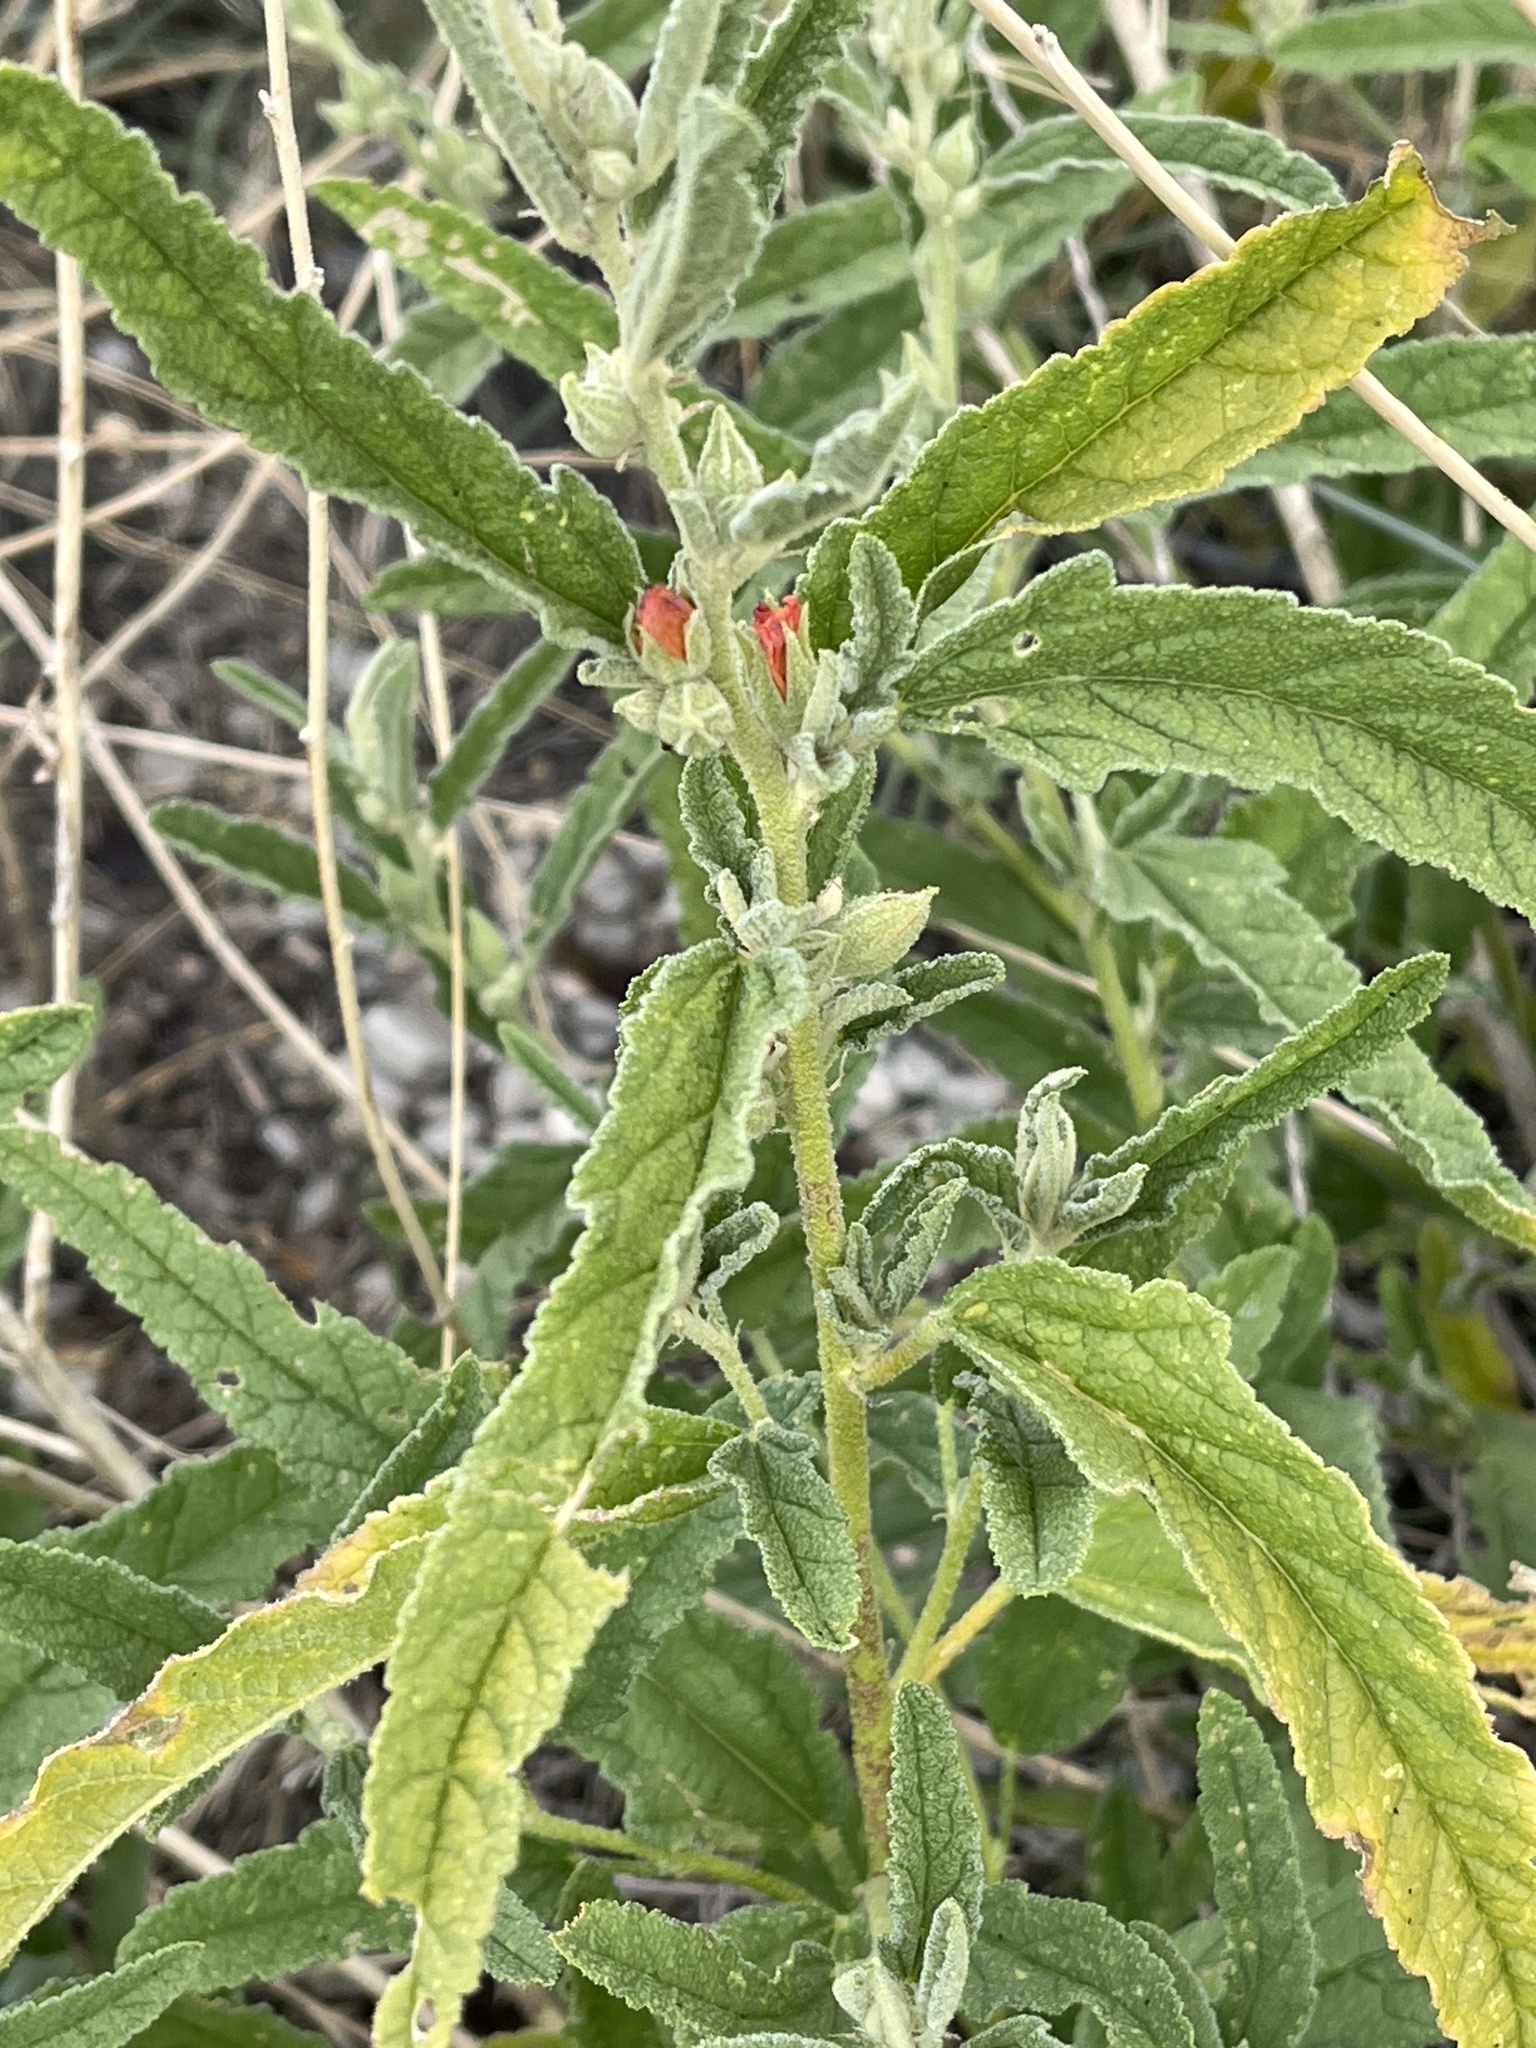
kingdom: Plantae
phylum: Tracheophyta
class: Magnoliopsida
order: Malvales
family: Malvaceae
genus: Sphaeralcea
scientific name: Sphaeralcea angustifolia
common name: Copper globe-mallow
